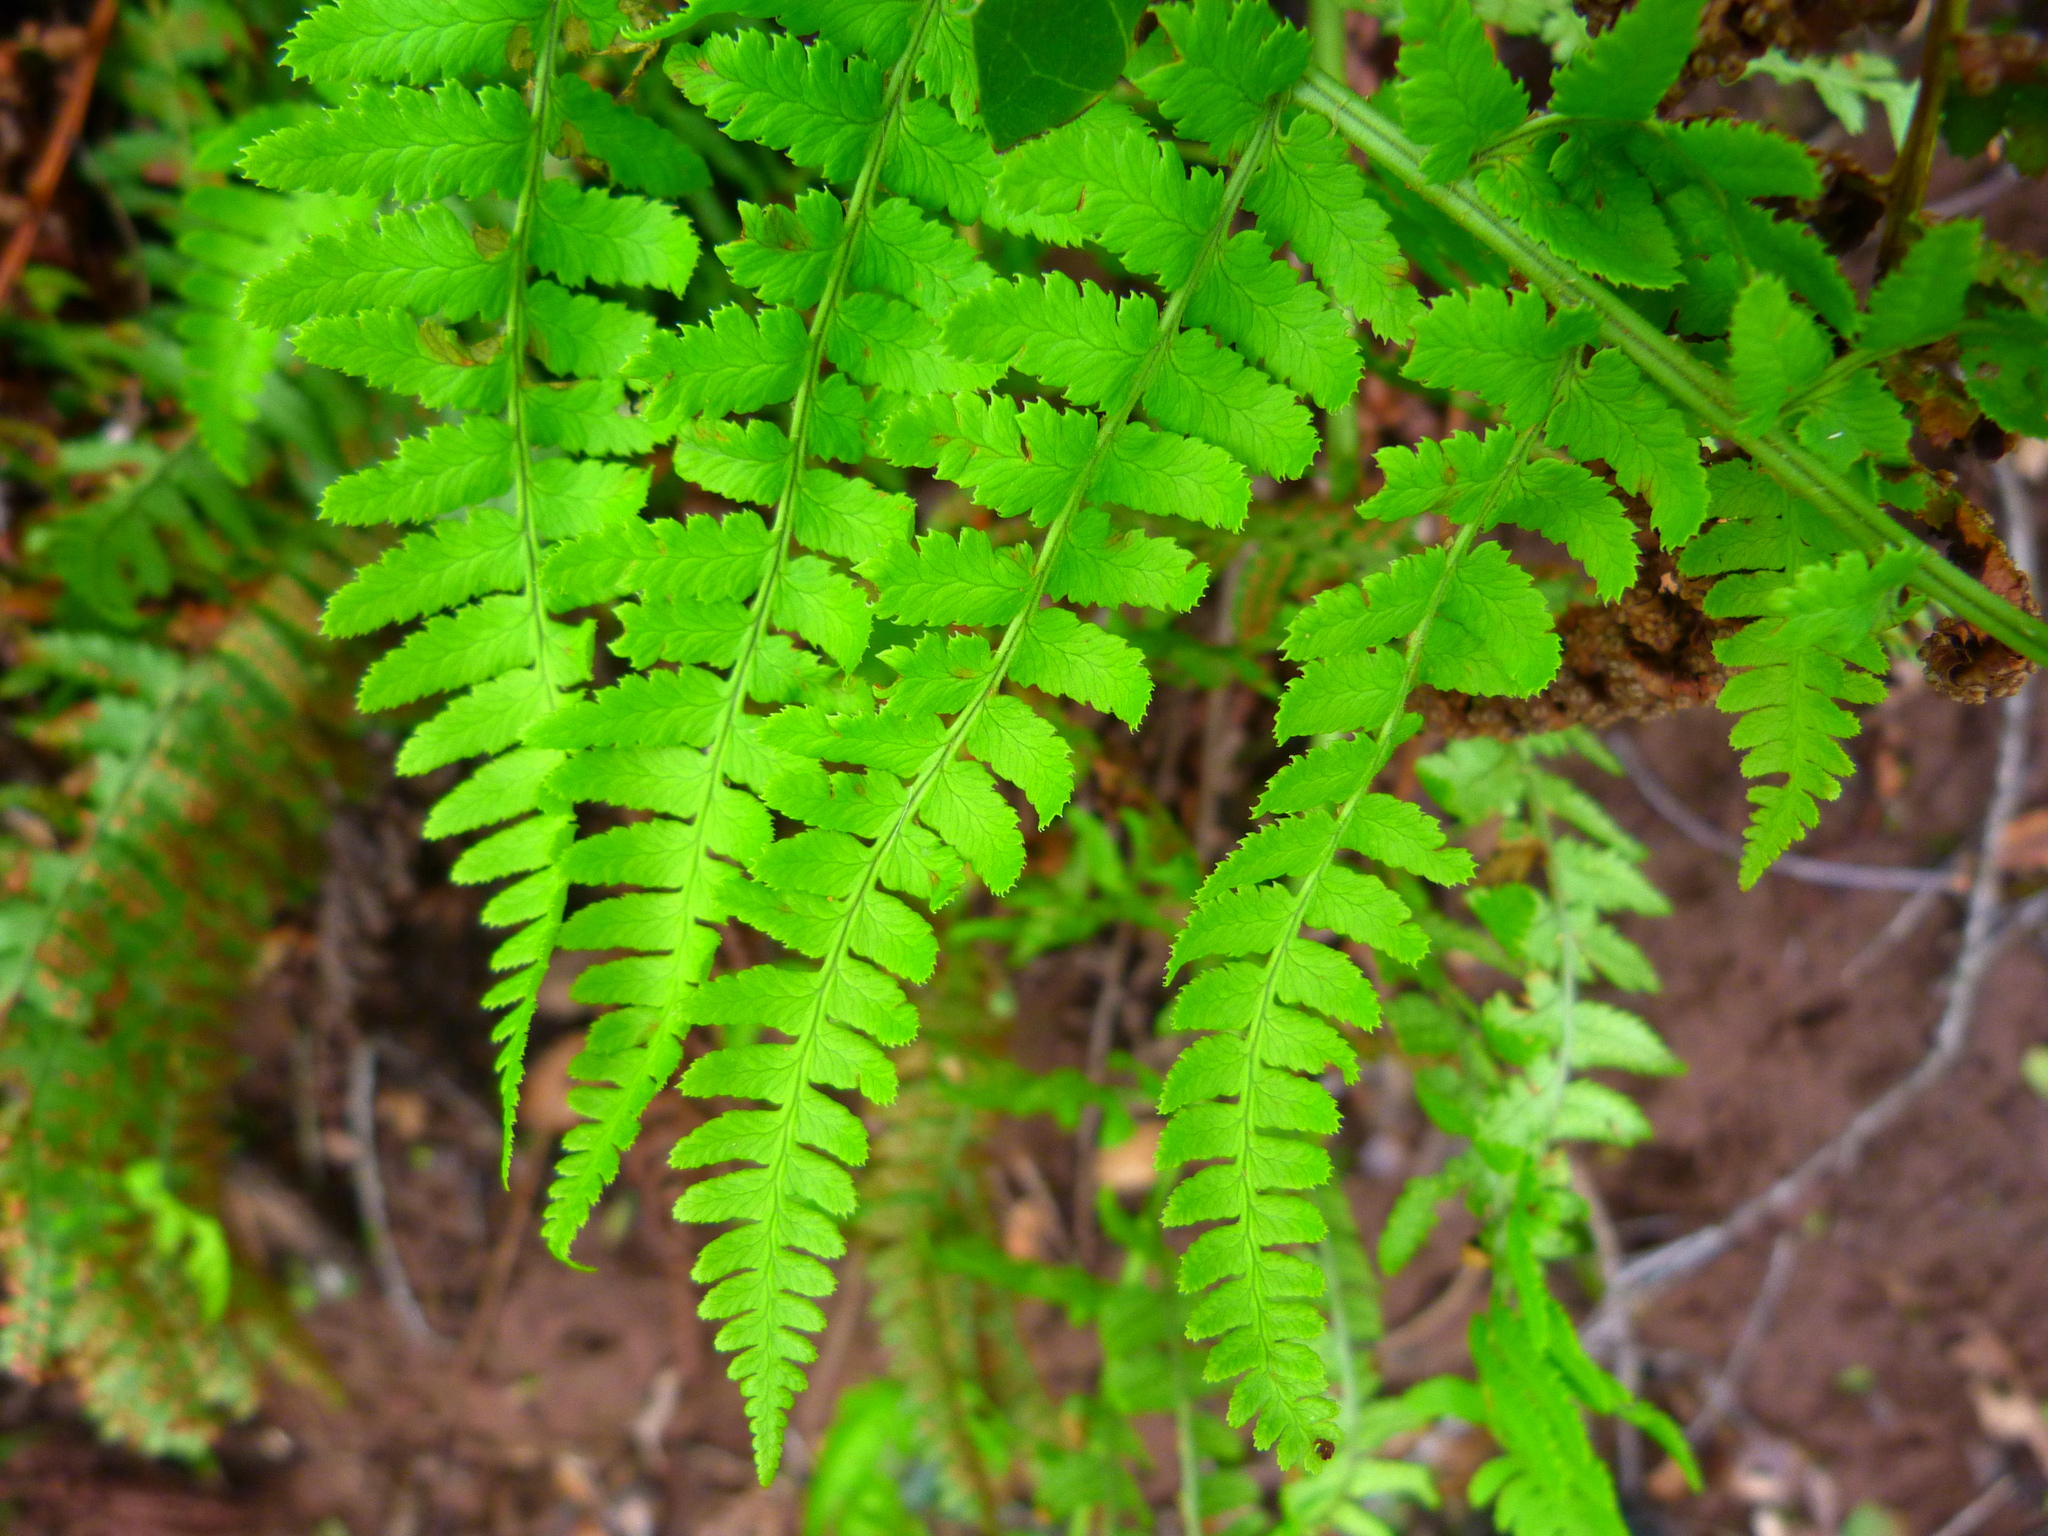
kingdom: Plantae
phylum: Tracheophyta
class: Polypodiopsida
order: Polypodiales
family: Dryopteridaceae
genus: Dryopteris
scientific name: Dryopteris arguta
